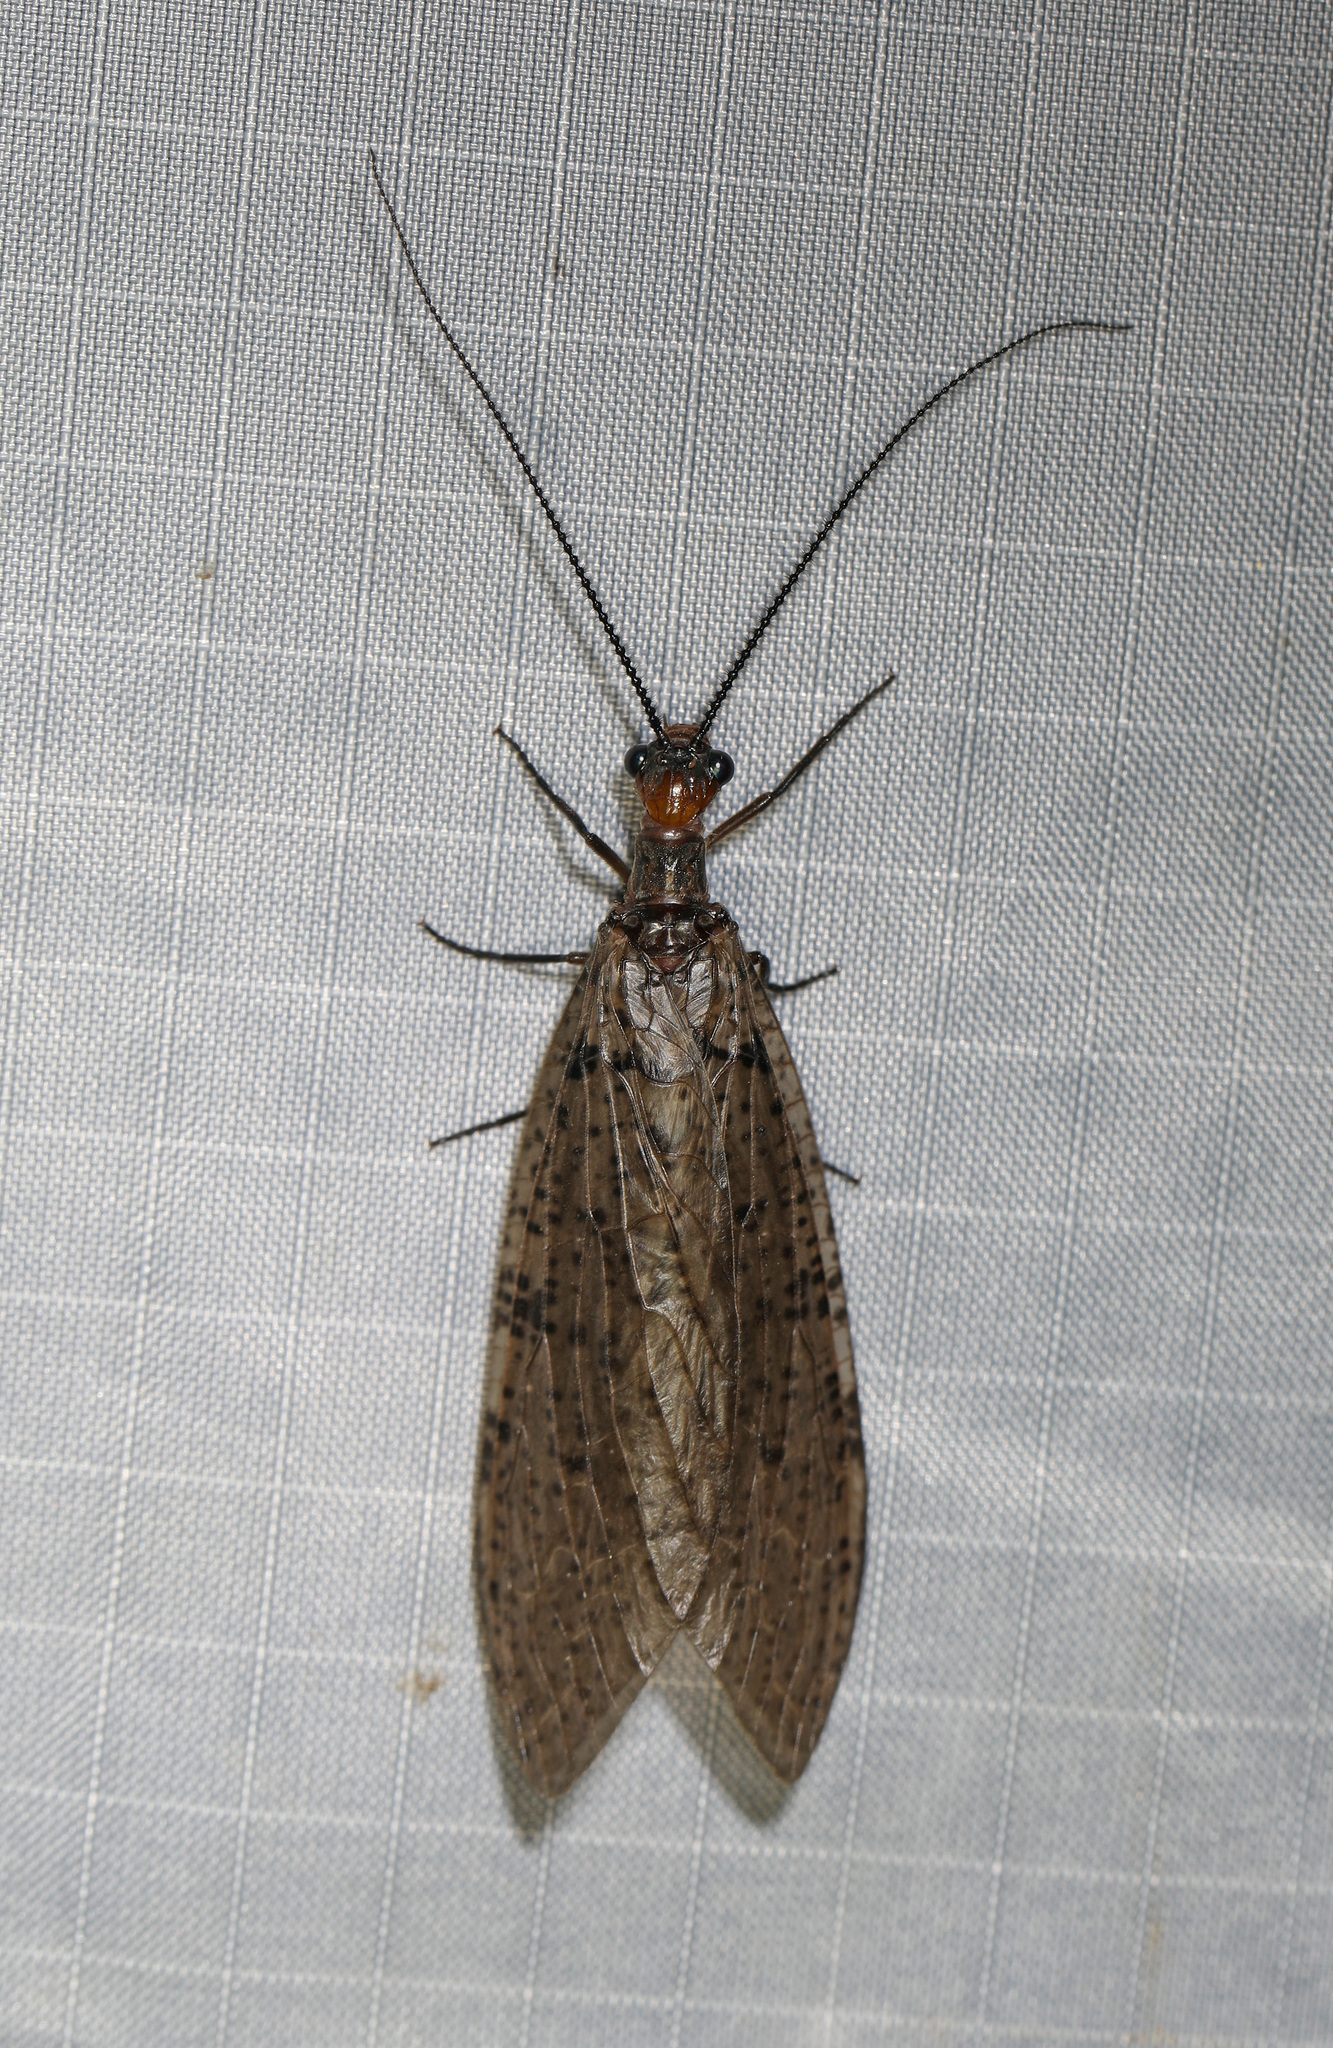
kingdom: Animalia
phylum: Arthropoda
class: Insecta
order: Megaloptera
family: Corydalidae
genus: Neohermes
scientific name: Neohermes concolor
